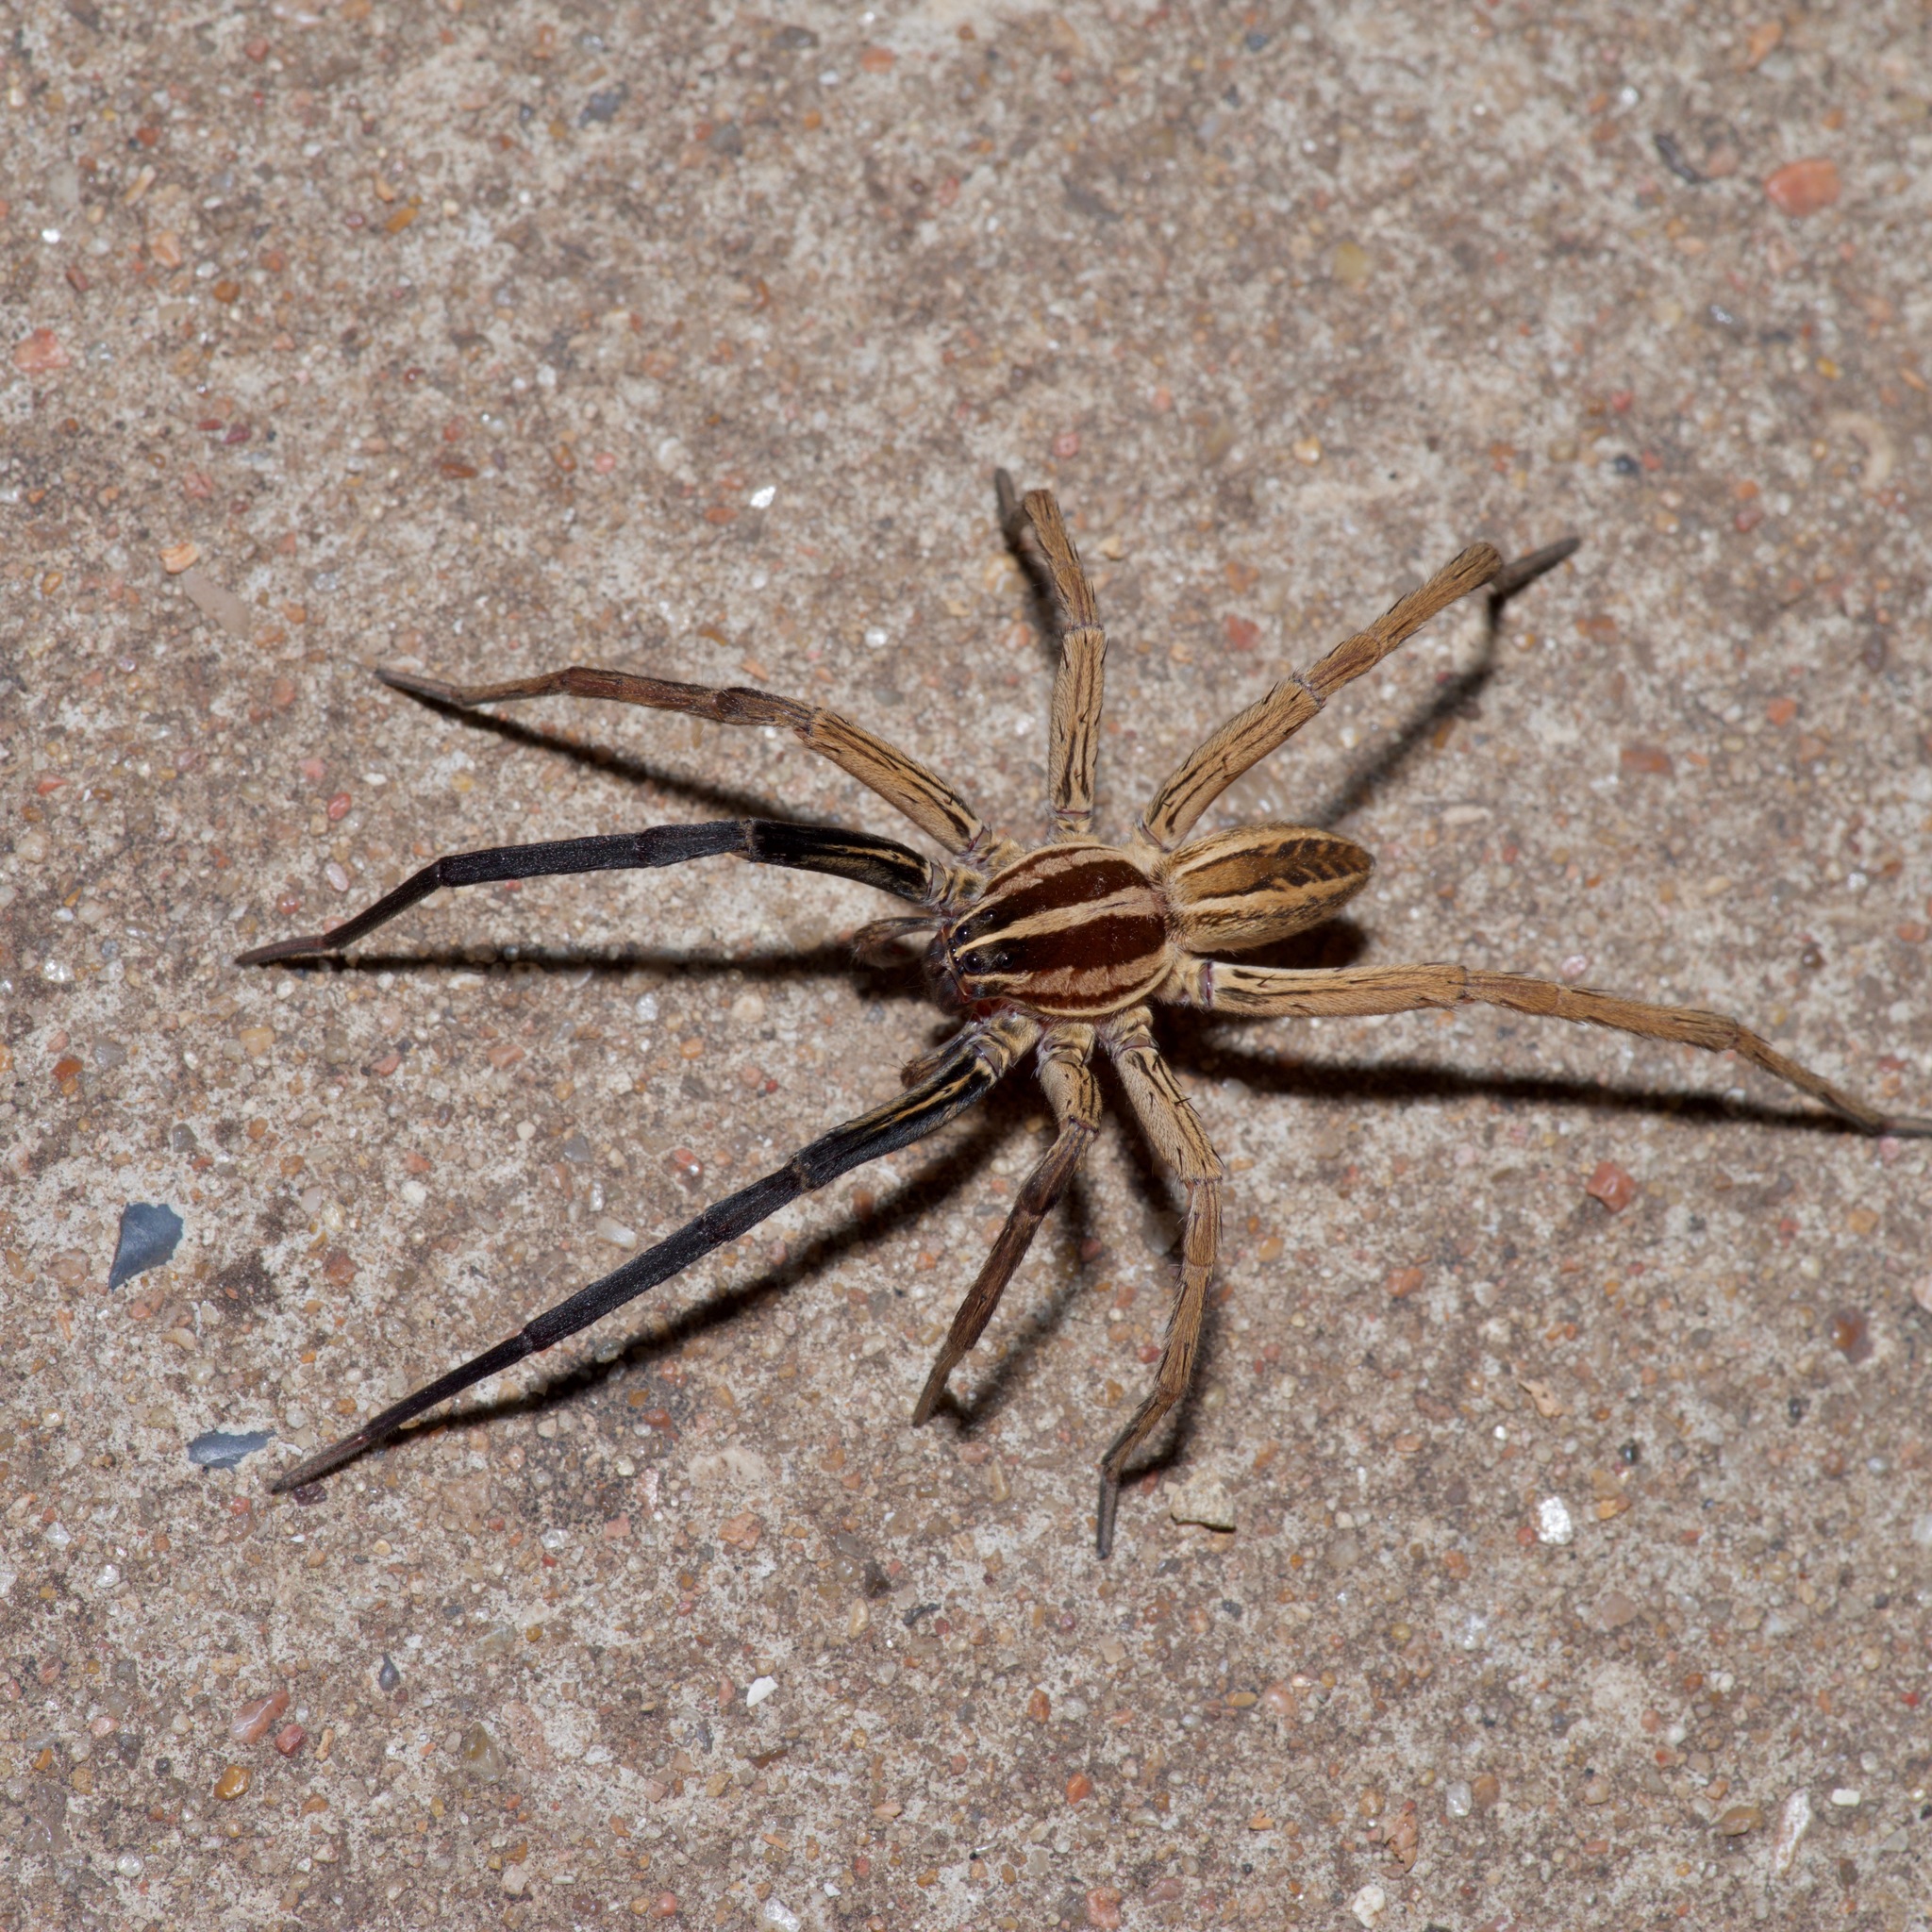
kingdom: Animalia
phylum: Arthropoda
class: Arachnida
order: Araneae
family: Lycosidae
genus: Rabidosa
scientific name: Rabidosa rabida
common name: Rabid wolf spider
